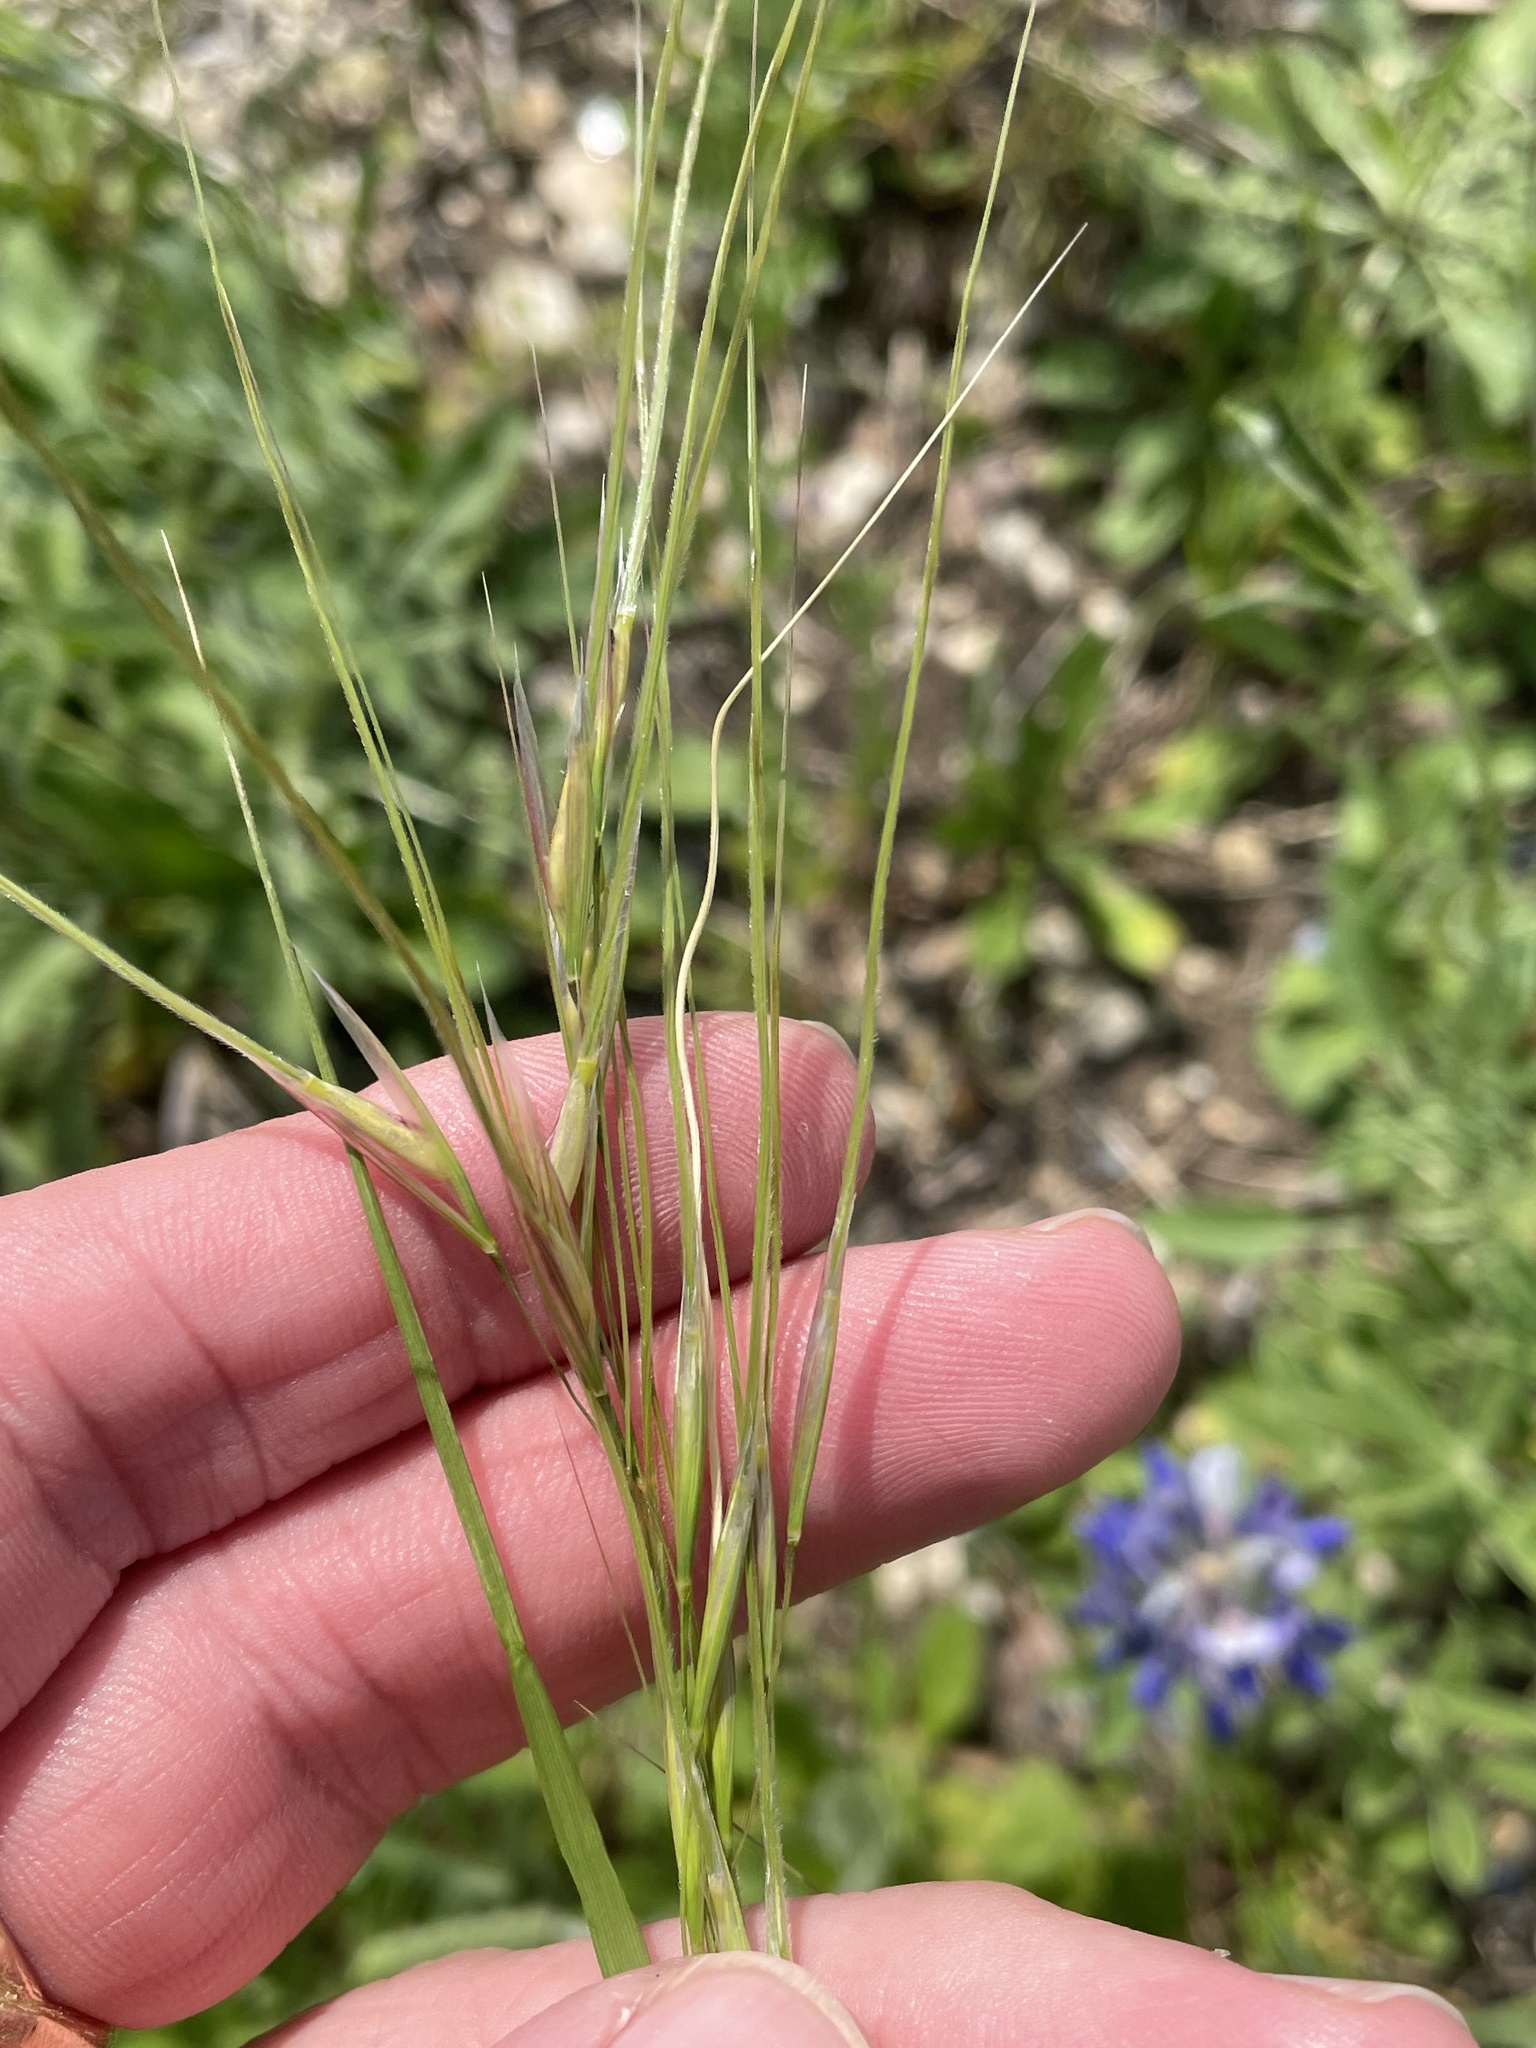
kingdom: Plantae
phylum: Tracheophyta
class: Liliopsida
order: Poales
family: Poaceae
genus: Nassella
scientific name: Nassella leucotricha
